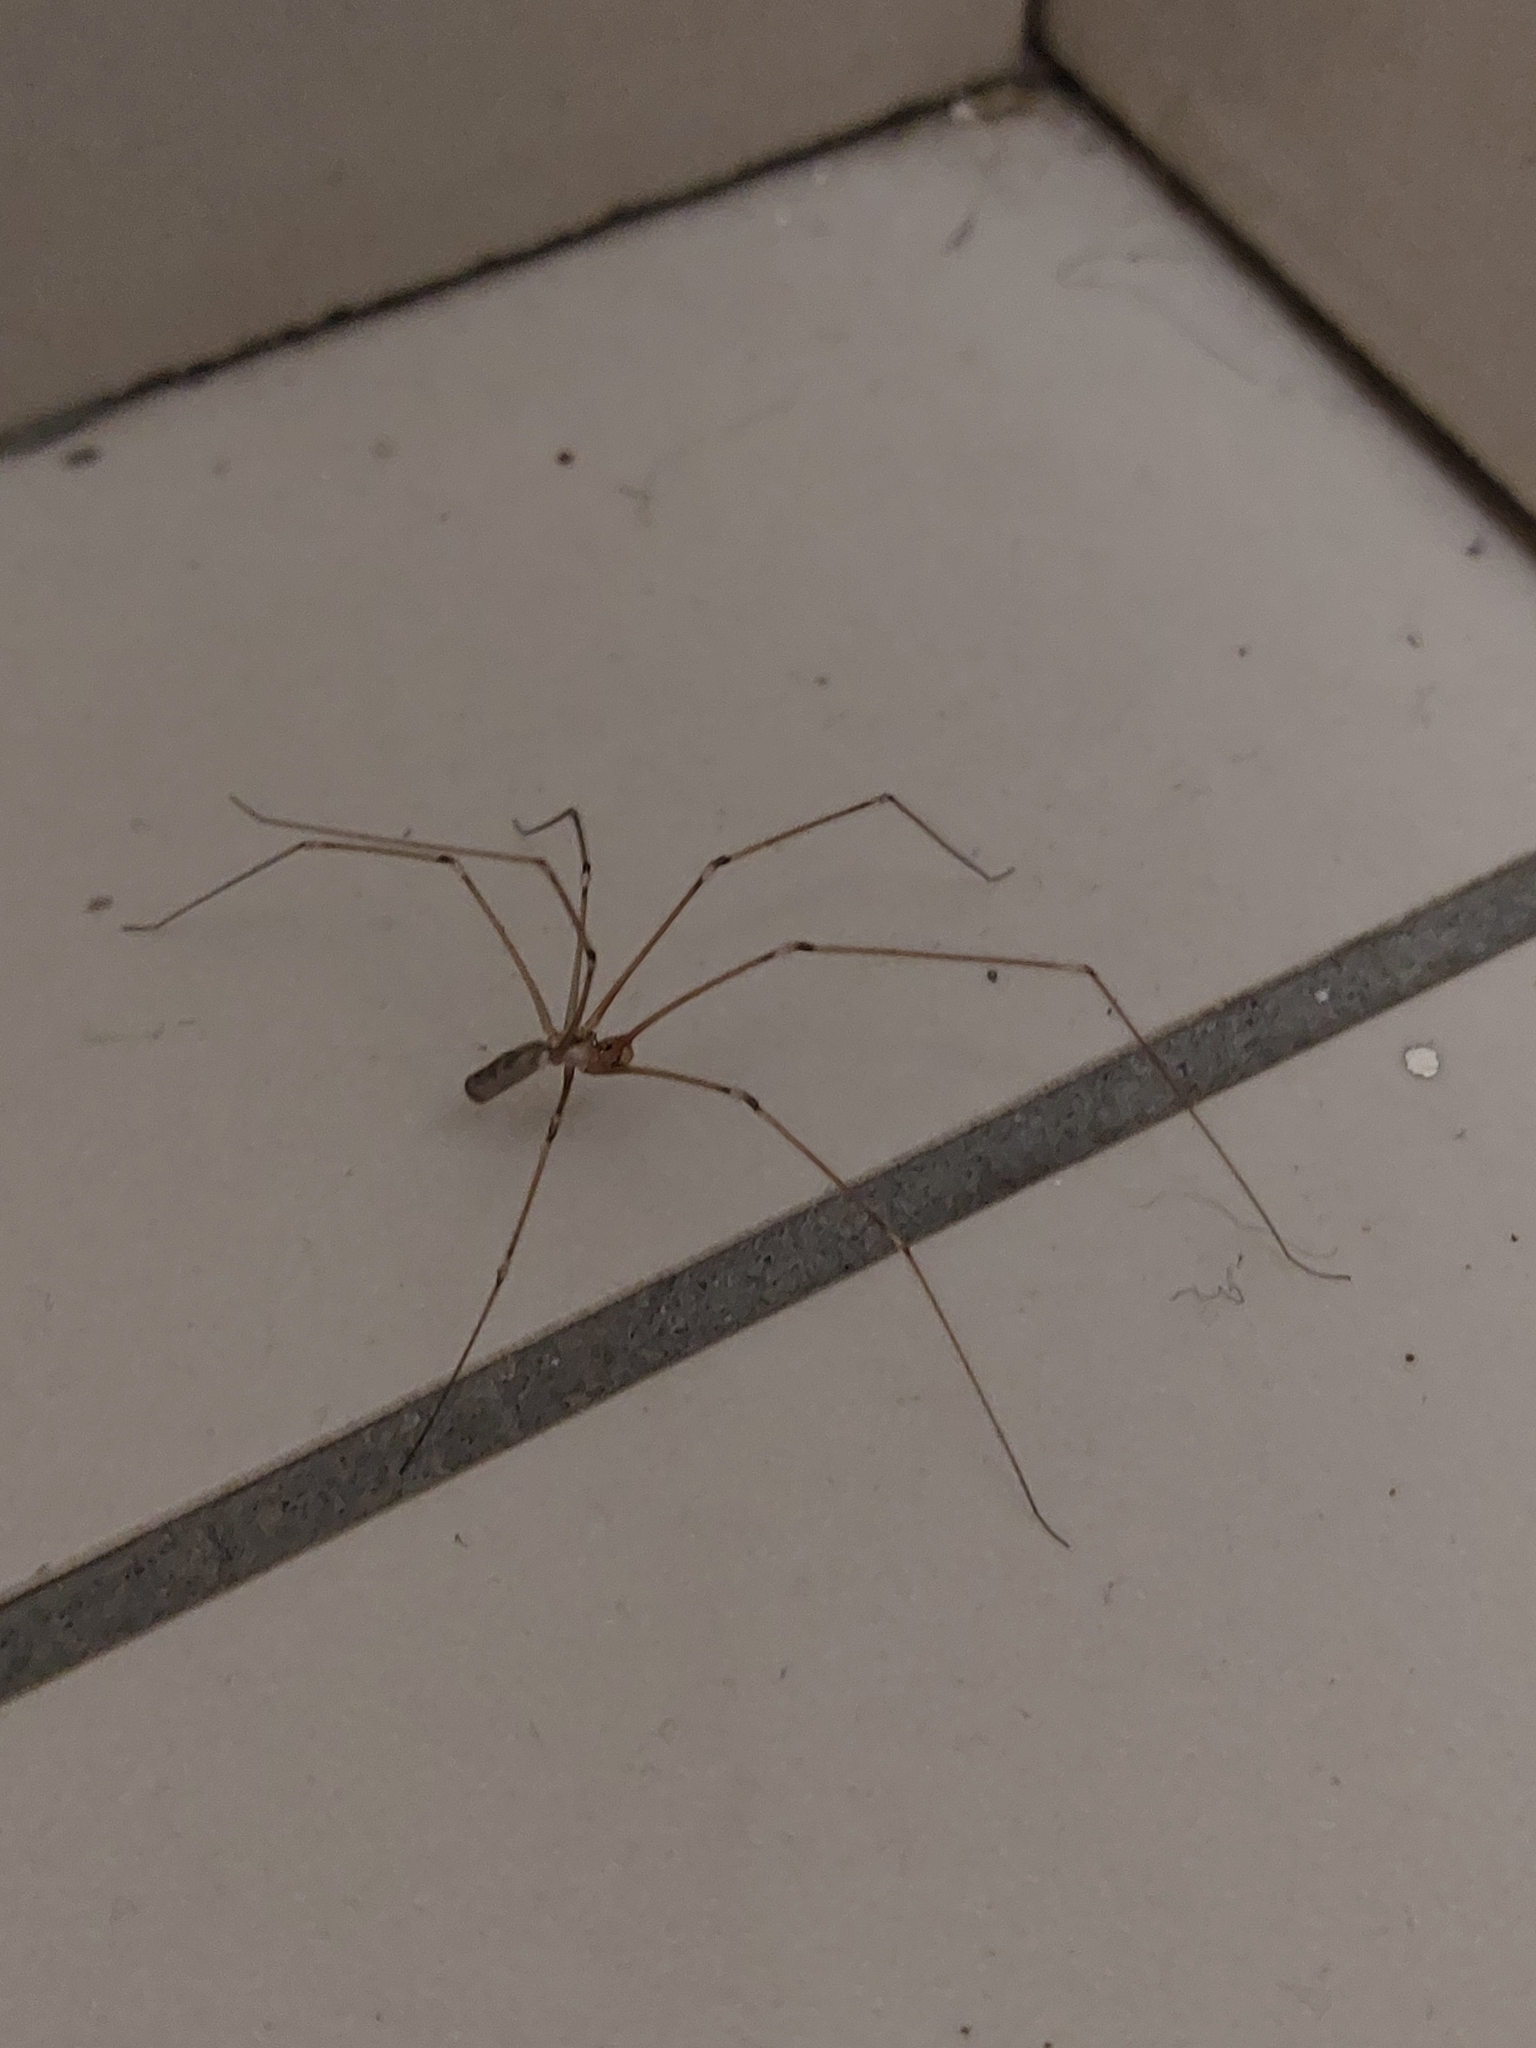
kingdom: Animalia
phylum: Arthropoda
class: Arachnida
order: Araneae
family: Pholcidae
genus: Pholcus
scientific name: Pholcus phalangioides
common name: Longbodied cellar spider
